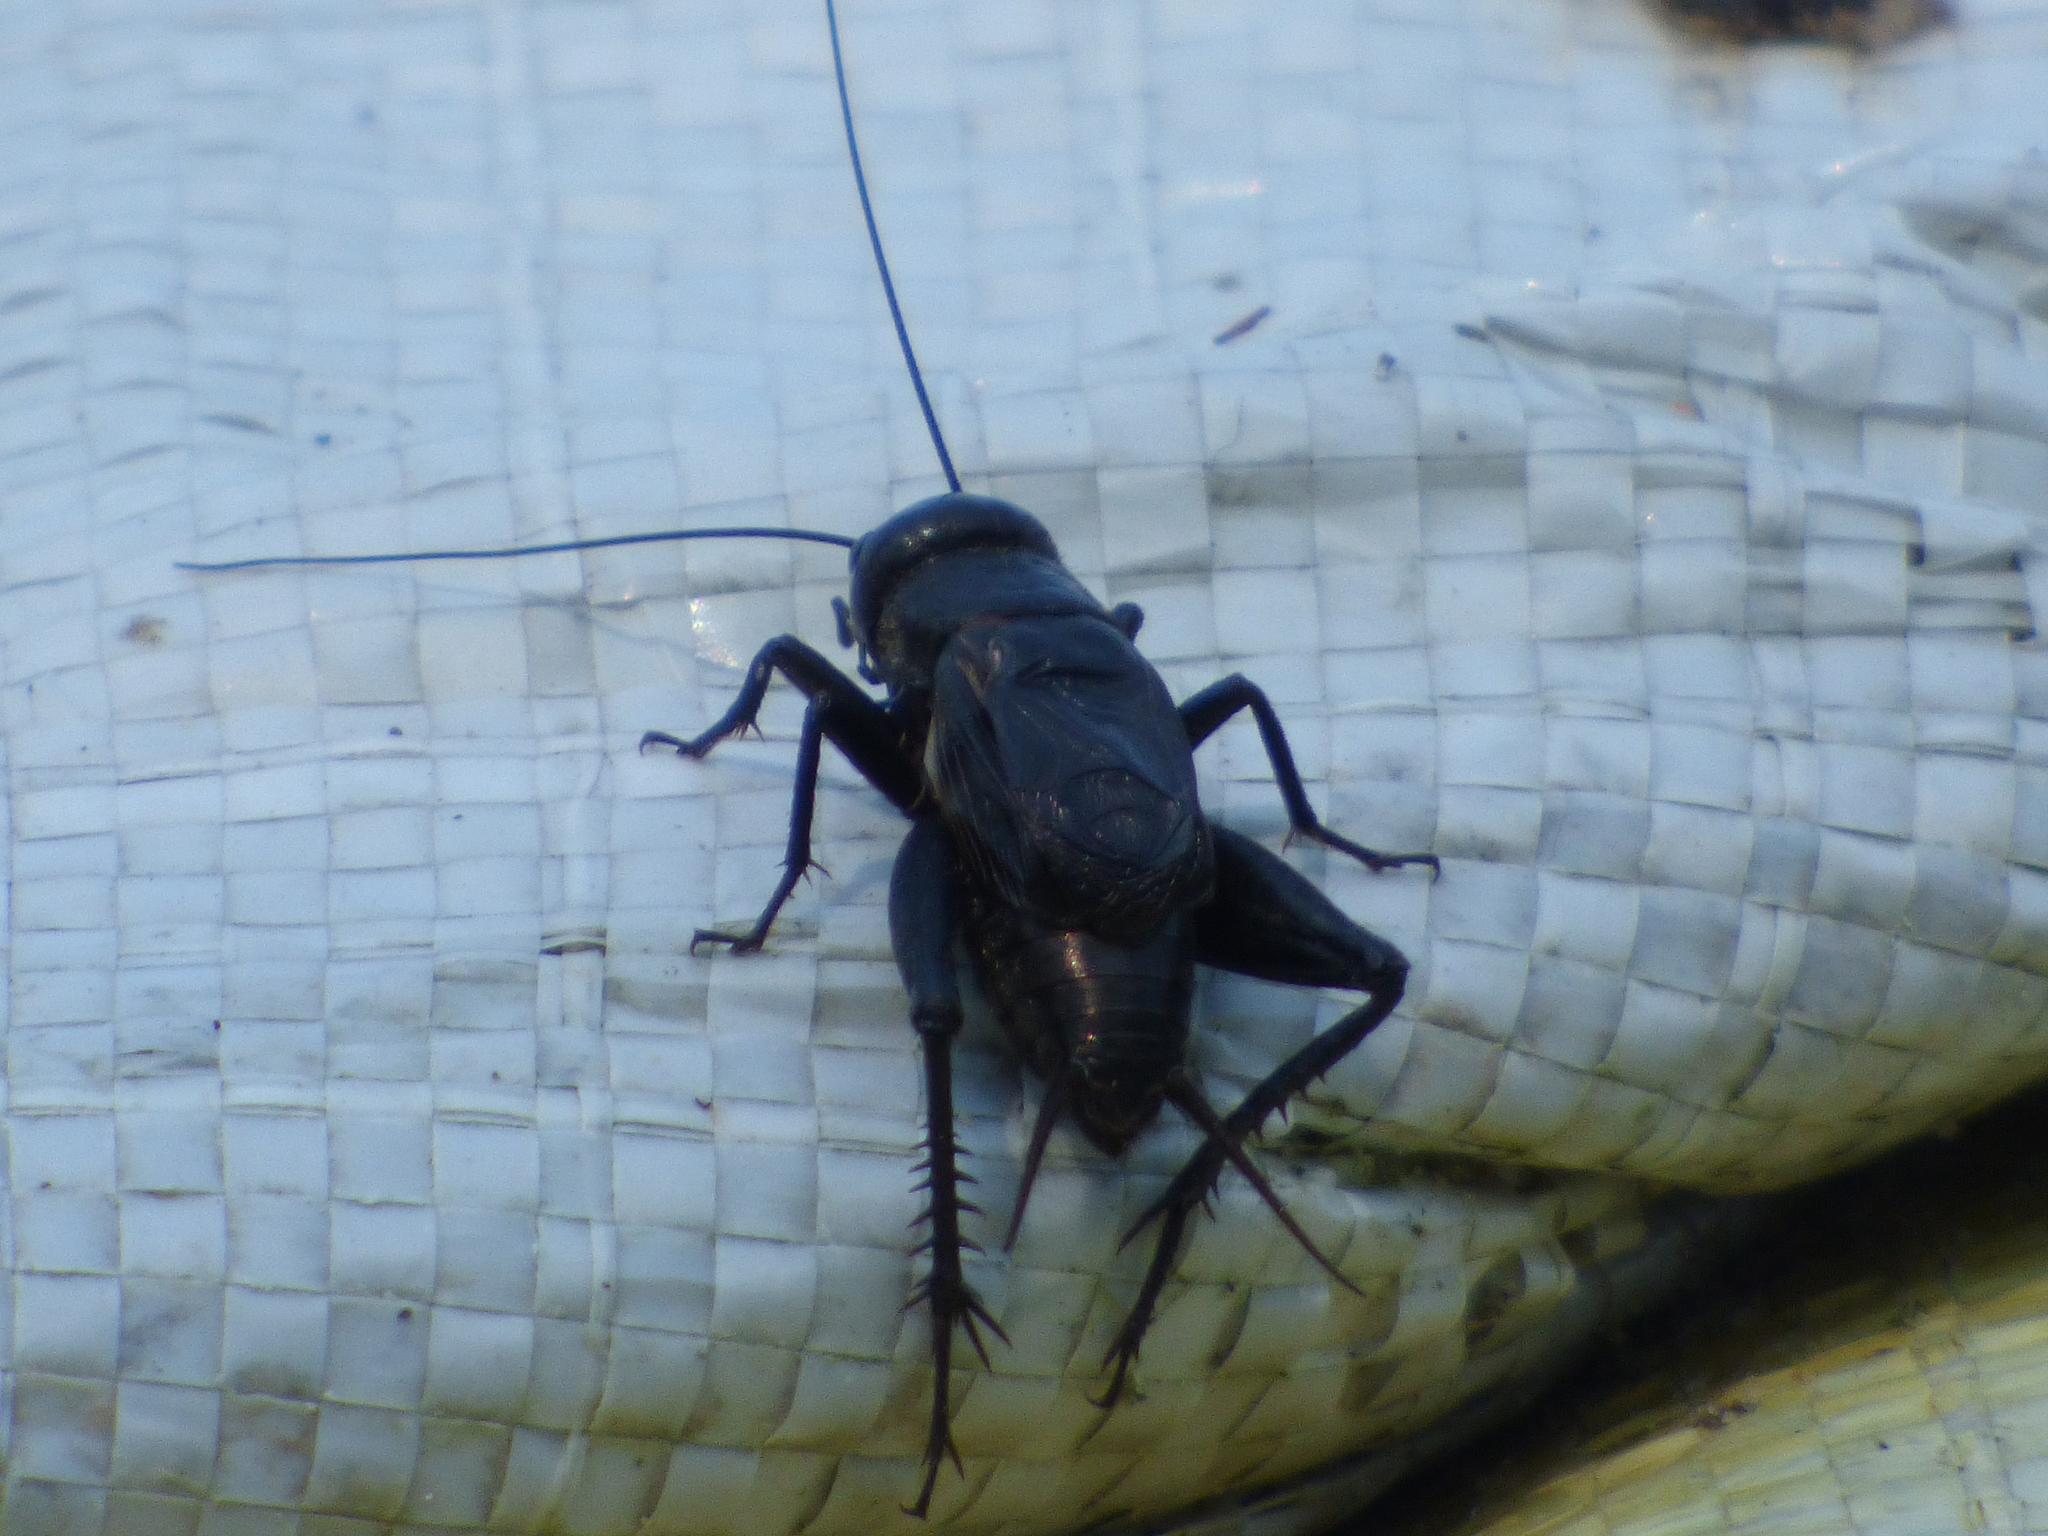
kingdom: Animalia
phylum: Arthropoda
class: Insecta
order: Orthoptera
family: Gryllidae
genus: Gryllus
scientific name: Gryllus pennsylvanicus
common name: Fall field cricket
